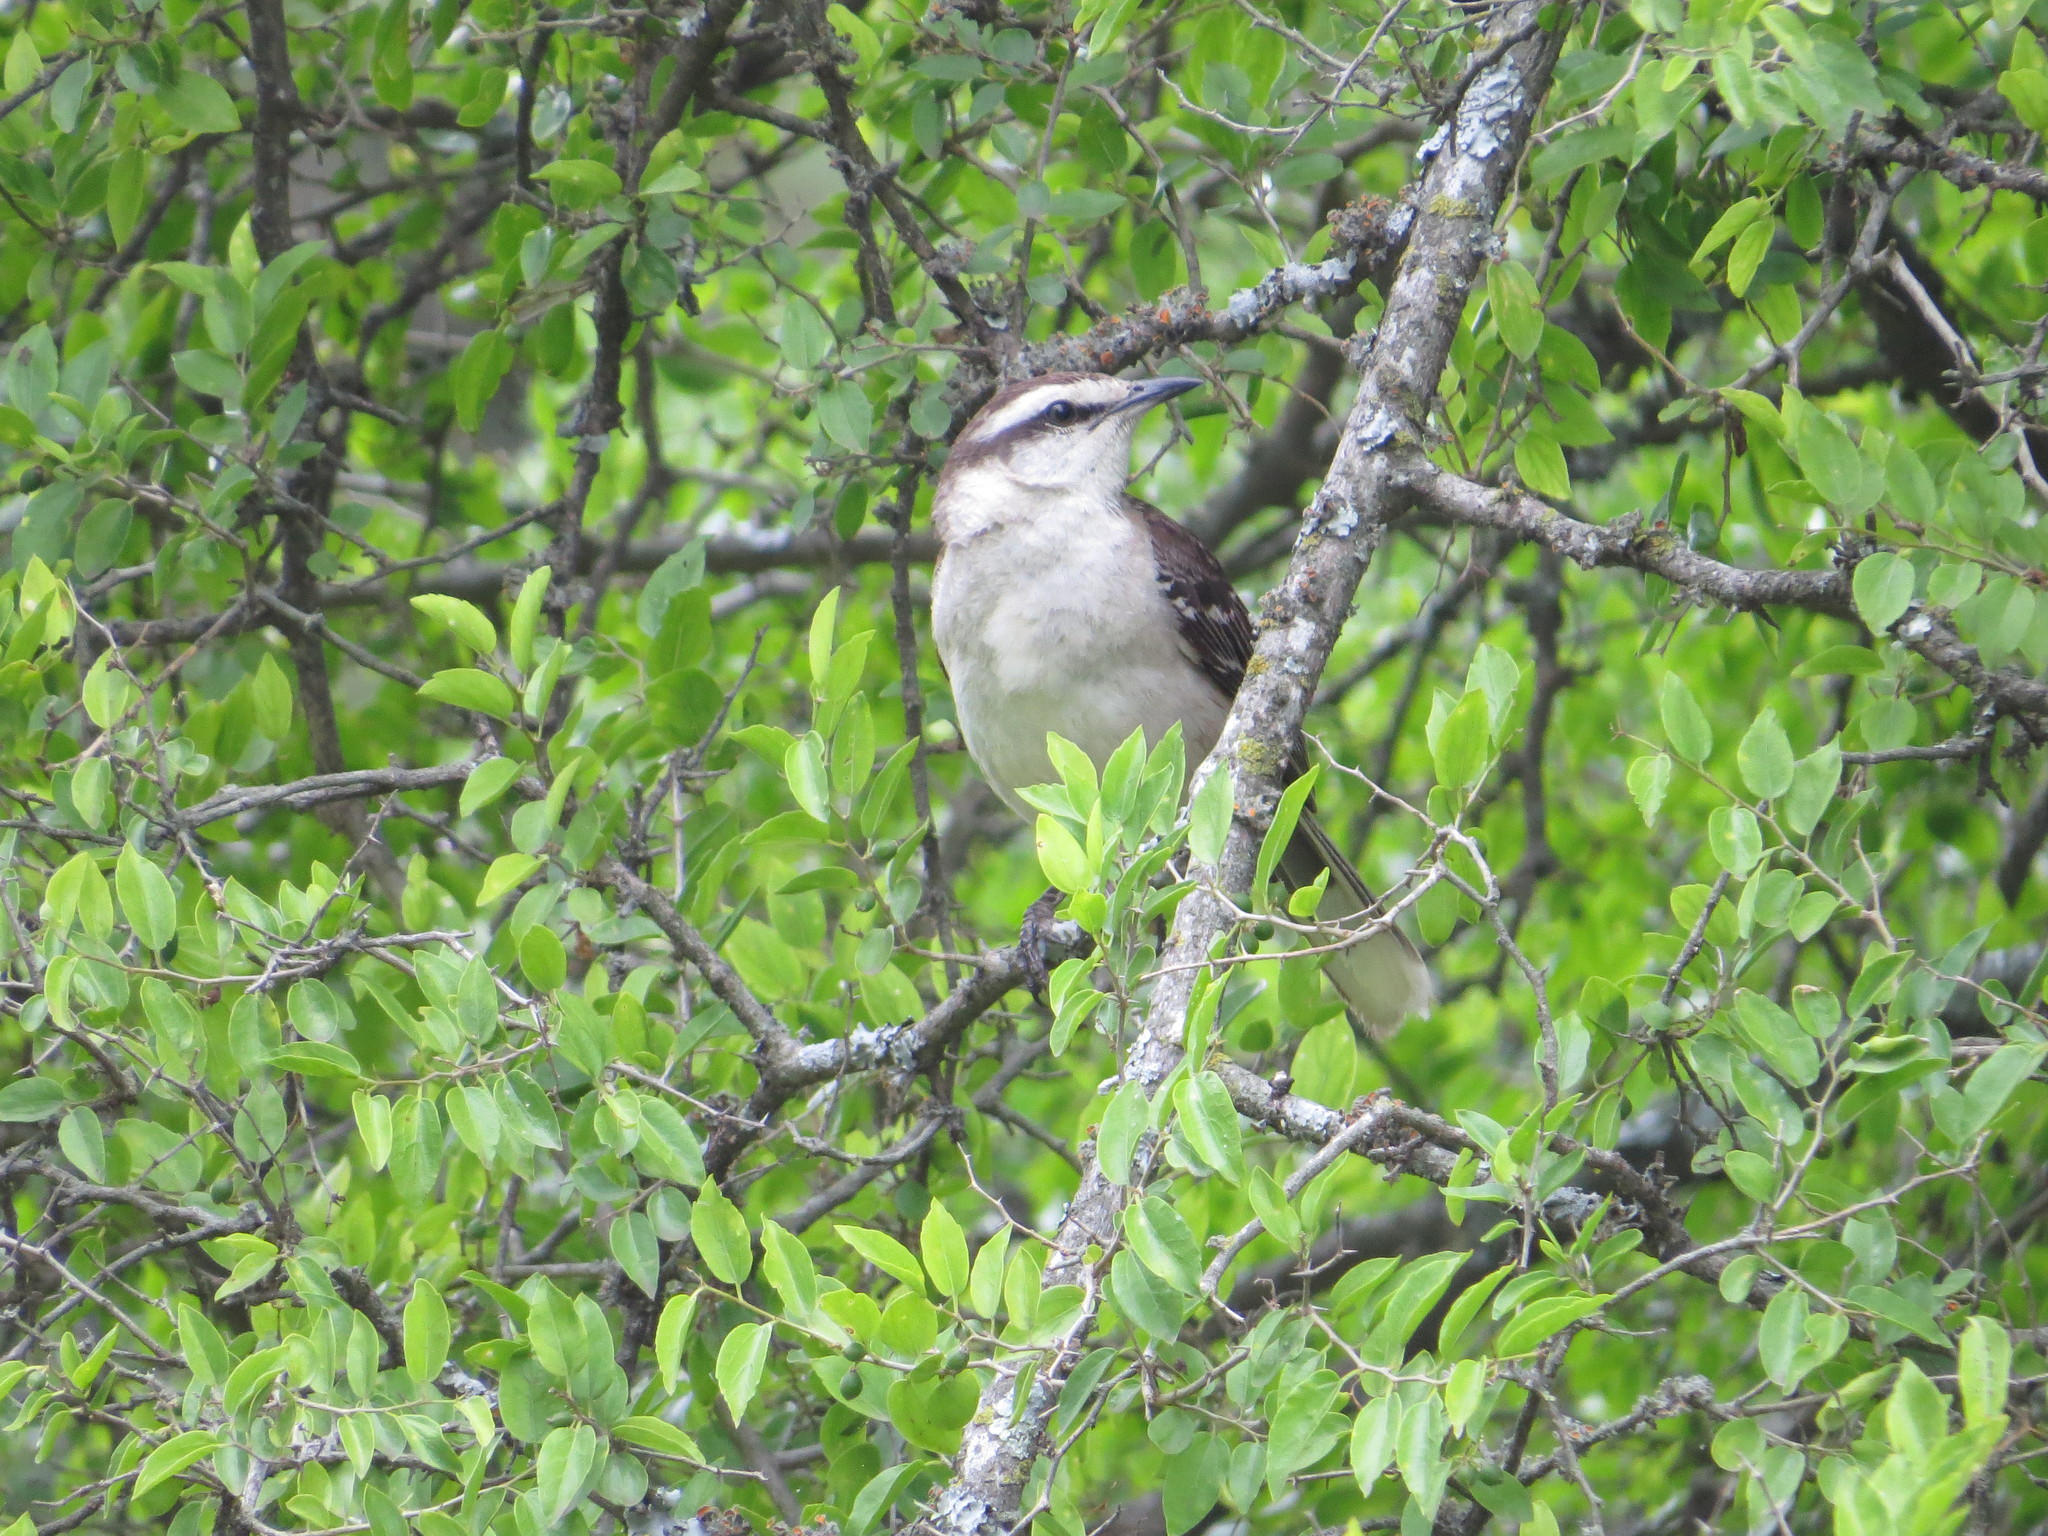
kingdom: Animalia
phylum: Chordata
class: Aves
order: Passeriformes
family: Mimidae
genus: Mimus
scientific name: Mimus saturninus
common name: Chalk-browed mockingbird
